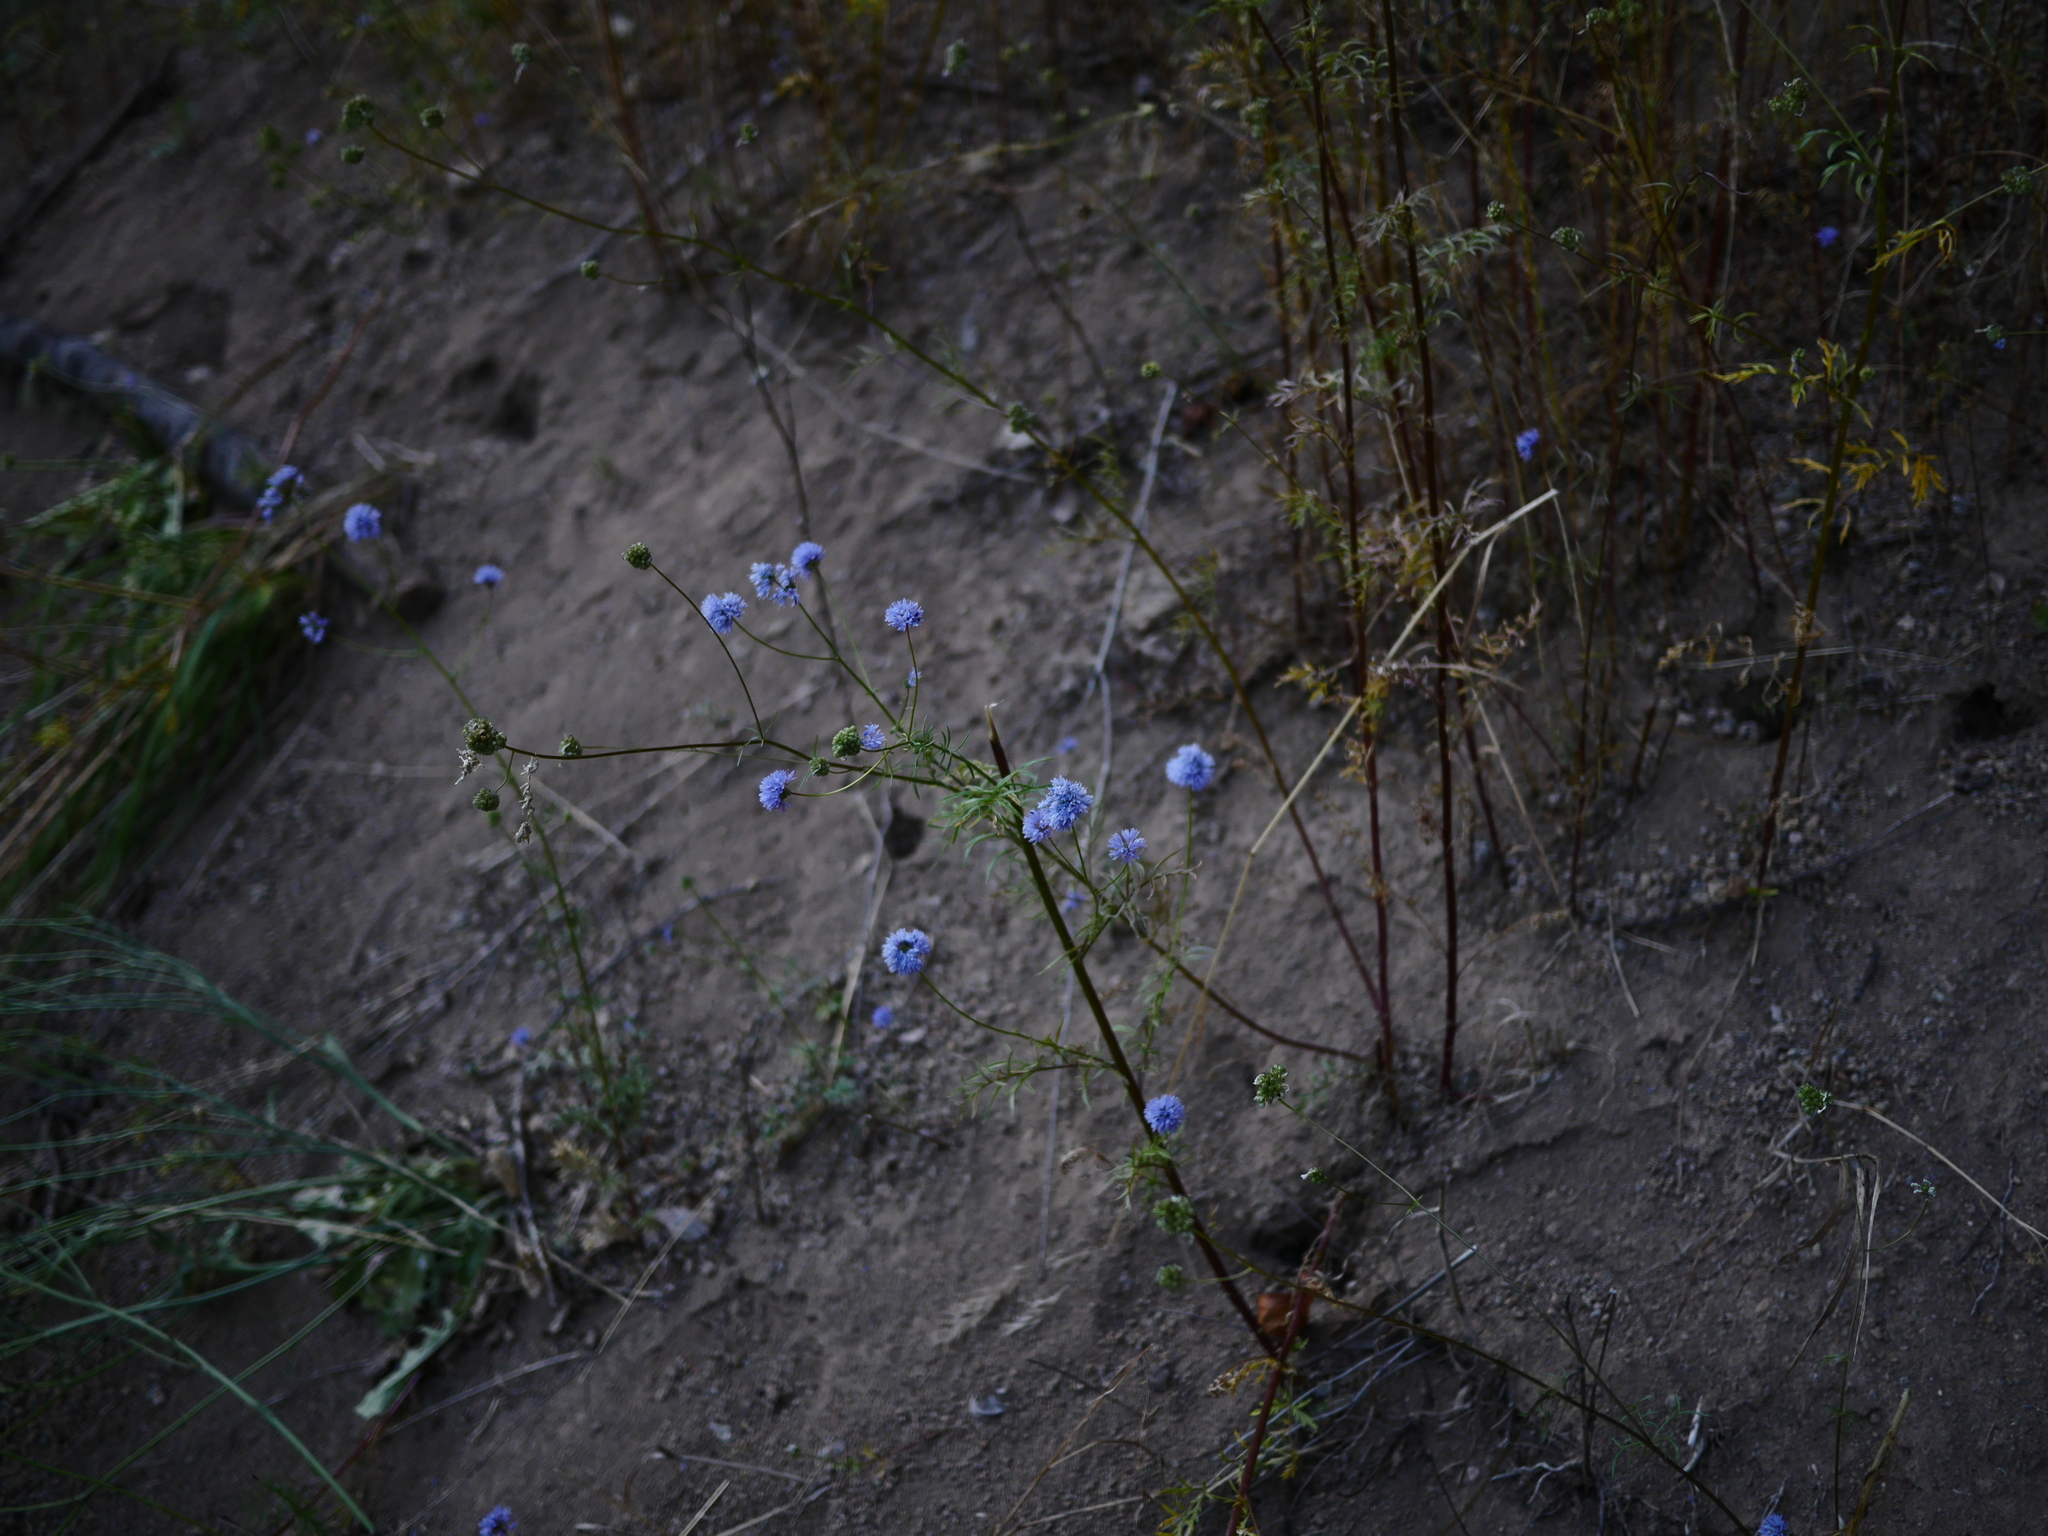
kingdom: Plantae
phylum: Tracheophyta
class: Magnoliopsida
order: Ericales
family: Polemoniaceae
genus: Gilia
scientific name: Gilia capitata
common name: Bluehead gilia
